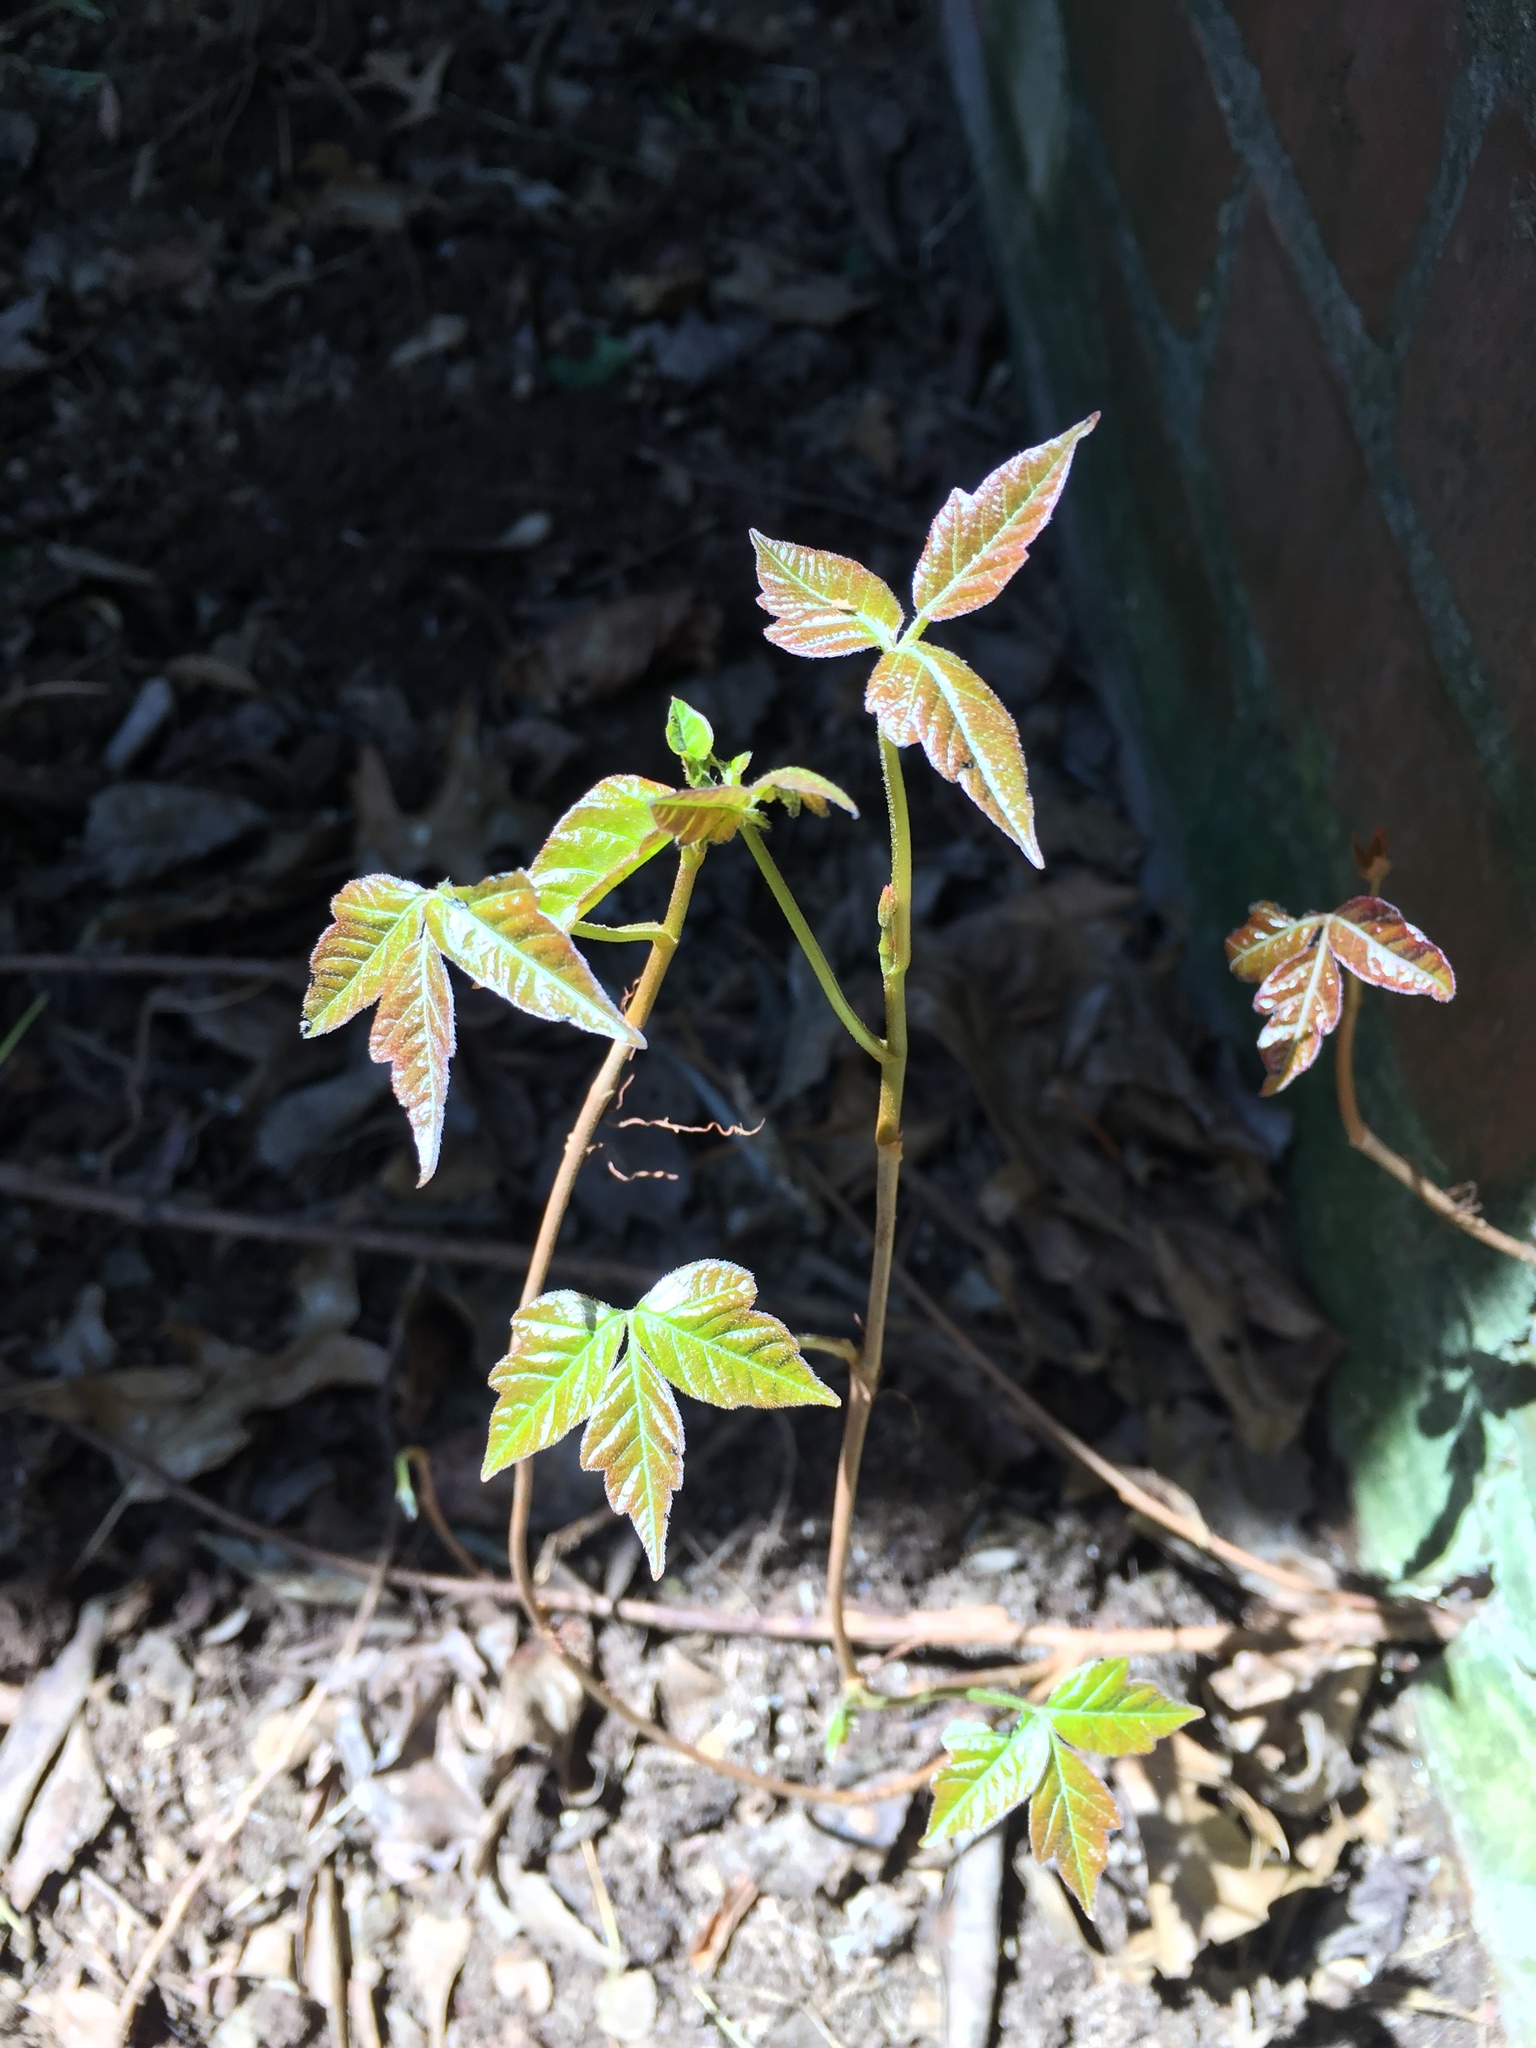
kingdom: Plantae
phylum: Tracheophyta
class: Magnoliopsida
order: Sapindales
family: Anacardiaceae
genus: Toxicodendron
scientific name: Toxicodendron radicans
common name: Poison ivy
